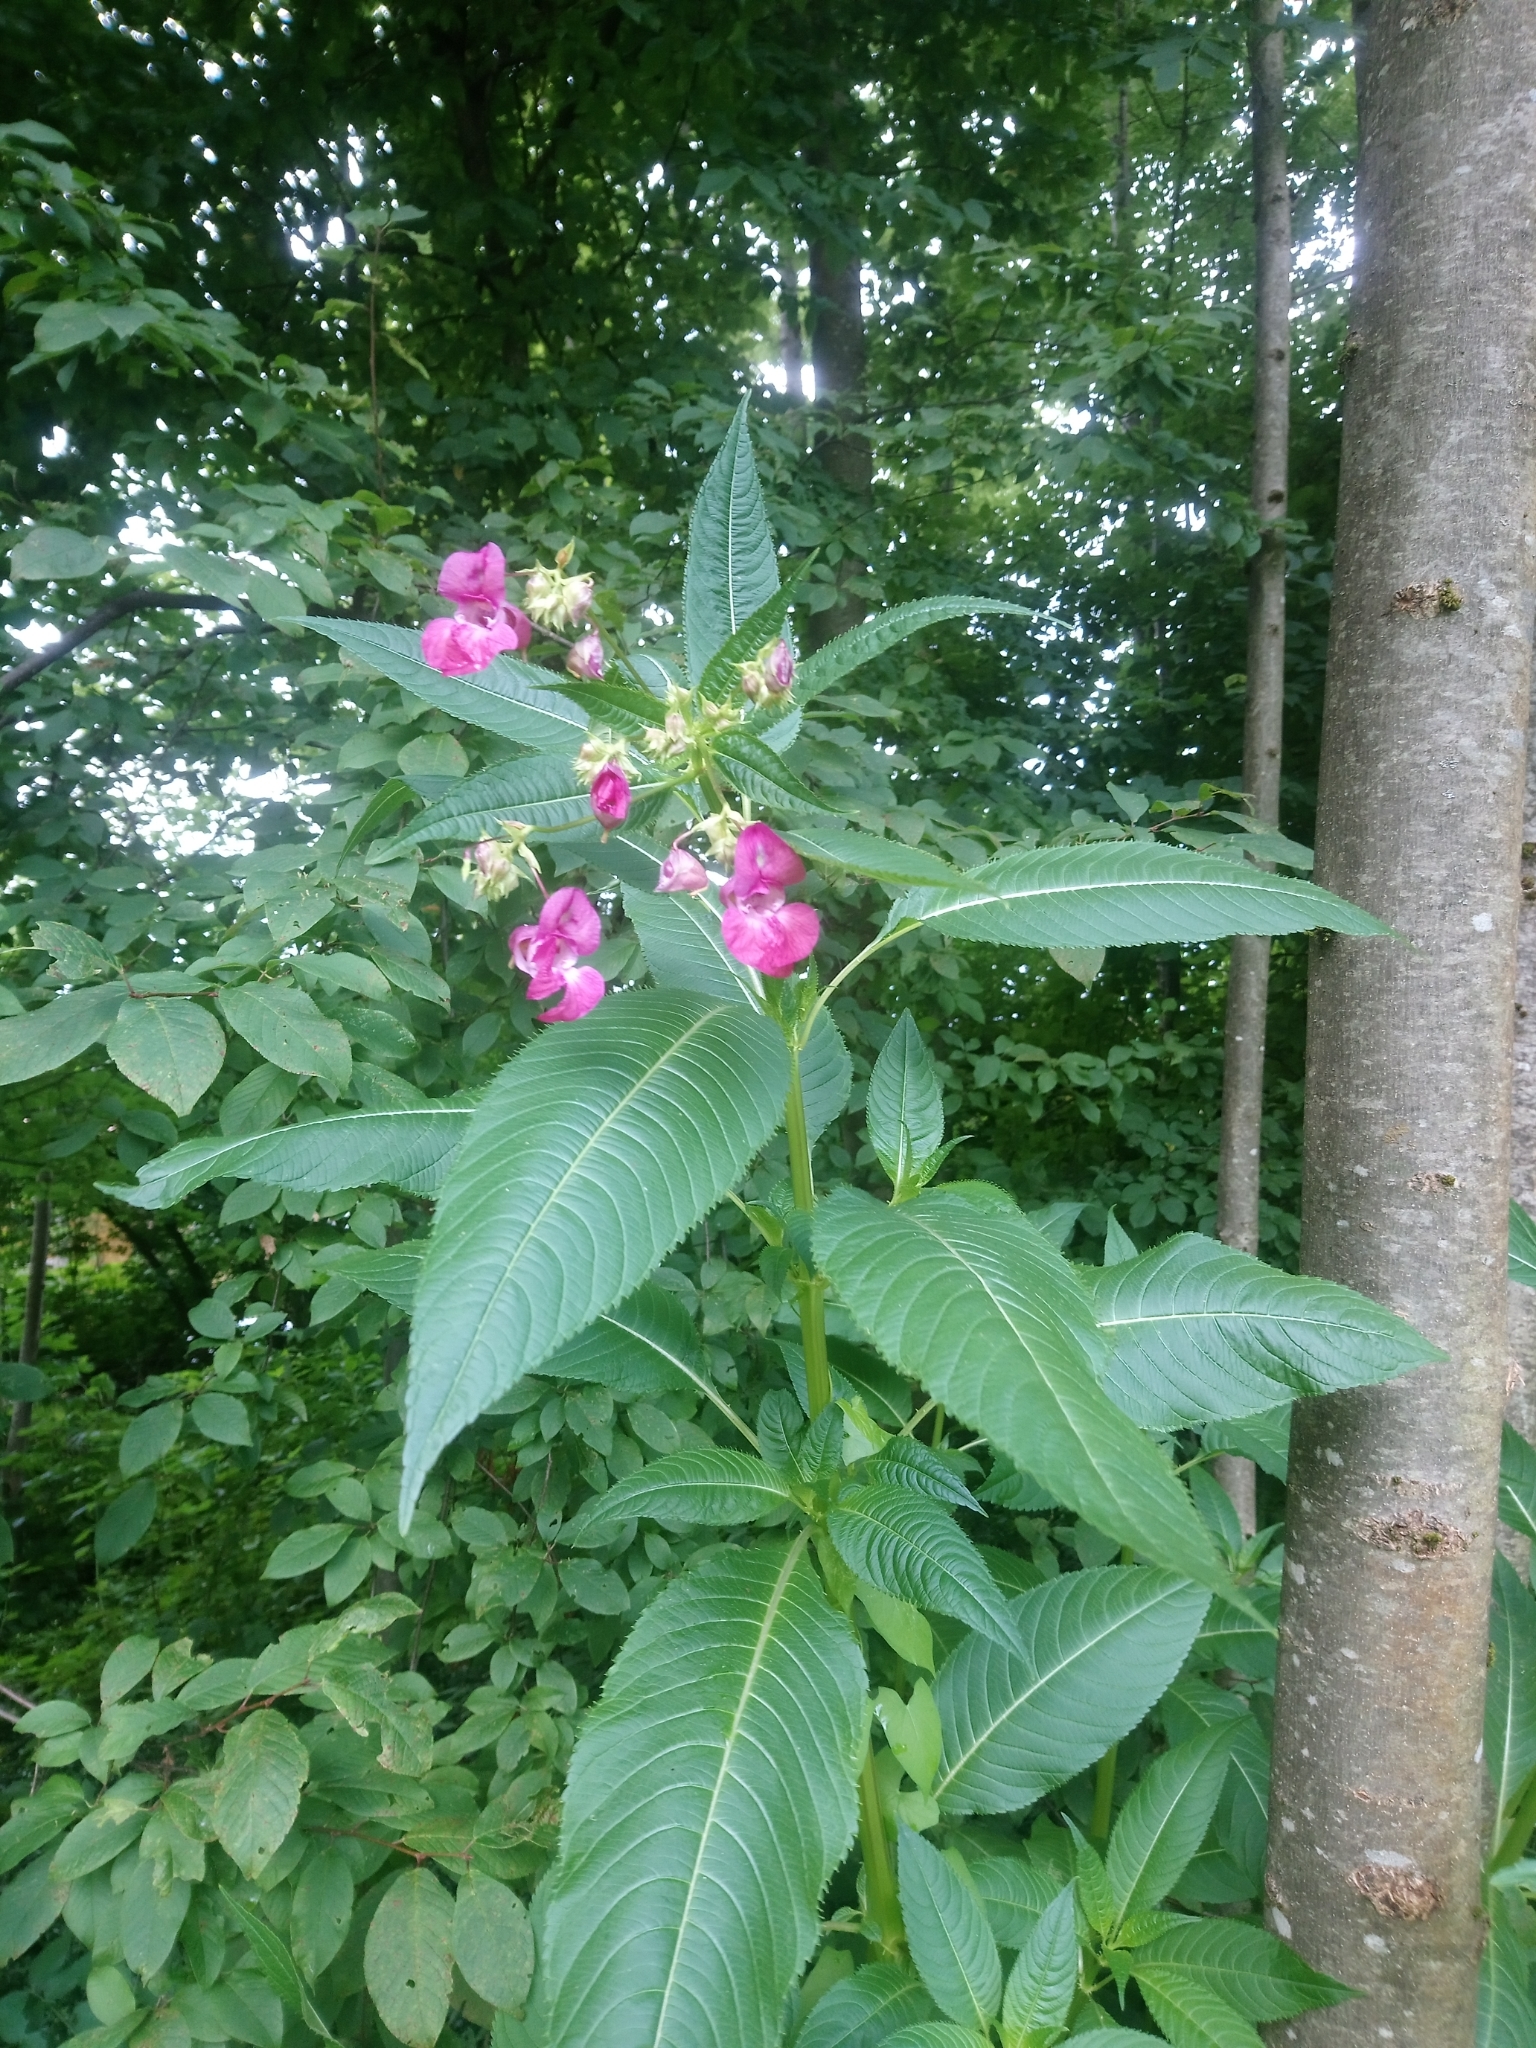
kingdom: Plantae
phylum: Tracheophyta
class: Magnoliopsida
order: Ericales
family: Balsaminaceae
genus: Impatiens
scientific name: Impatiens glandulifera
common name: Himalayan balsam
